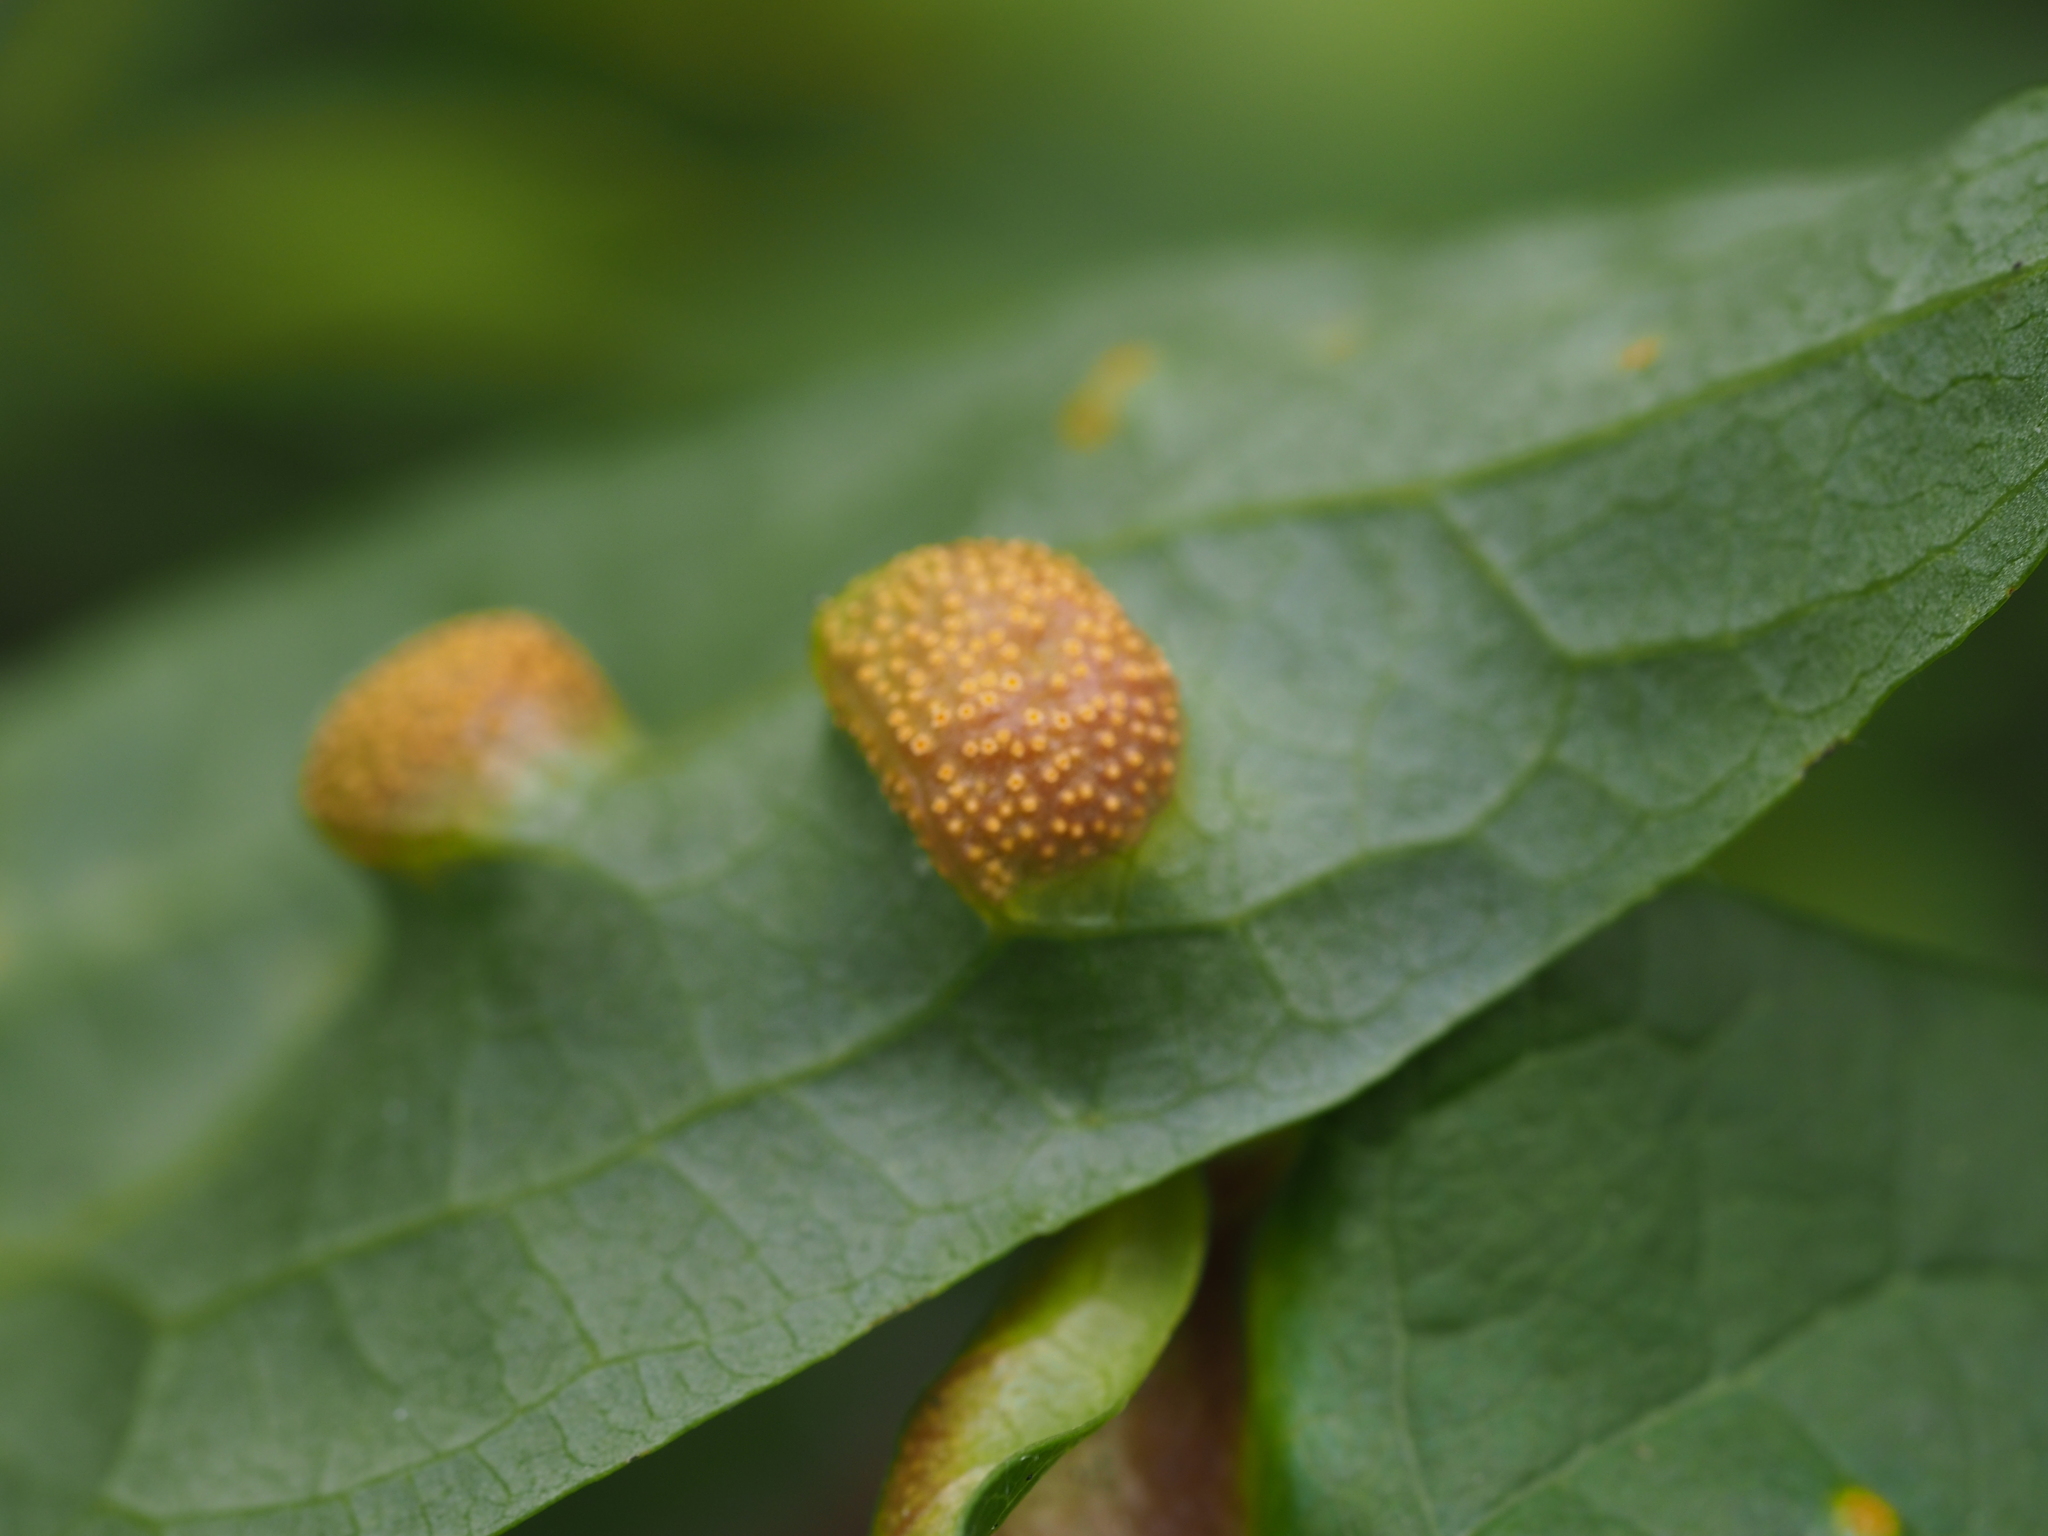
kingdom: Fungi
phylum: Basidiomycota
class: Pucciniomycetes
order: Pucciniales
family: Pucciniaceae
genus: Puccinia
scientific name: Puccinia alnetorum
